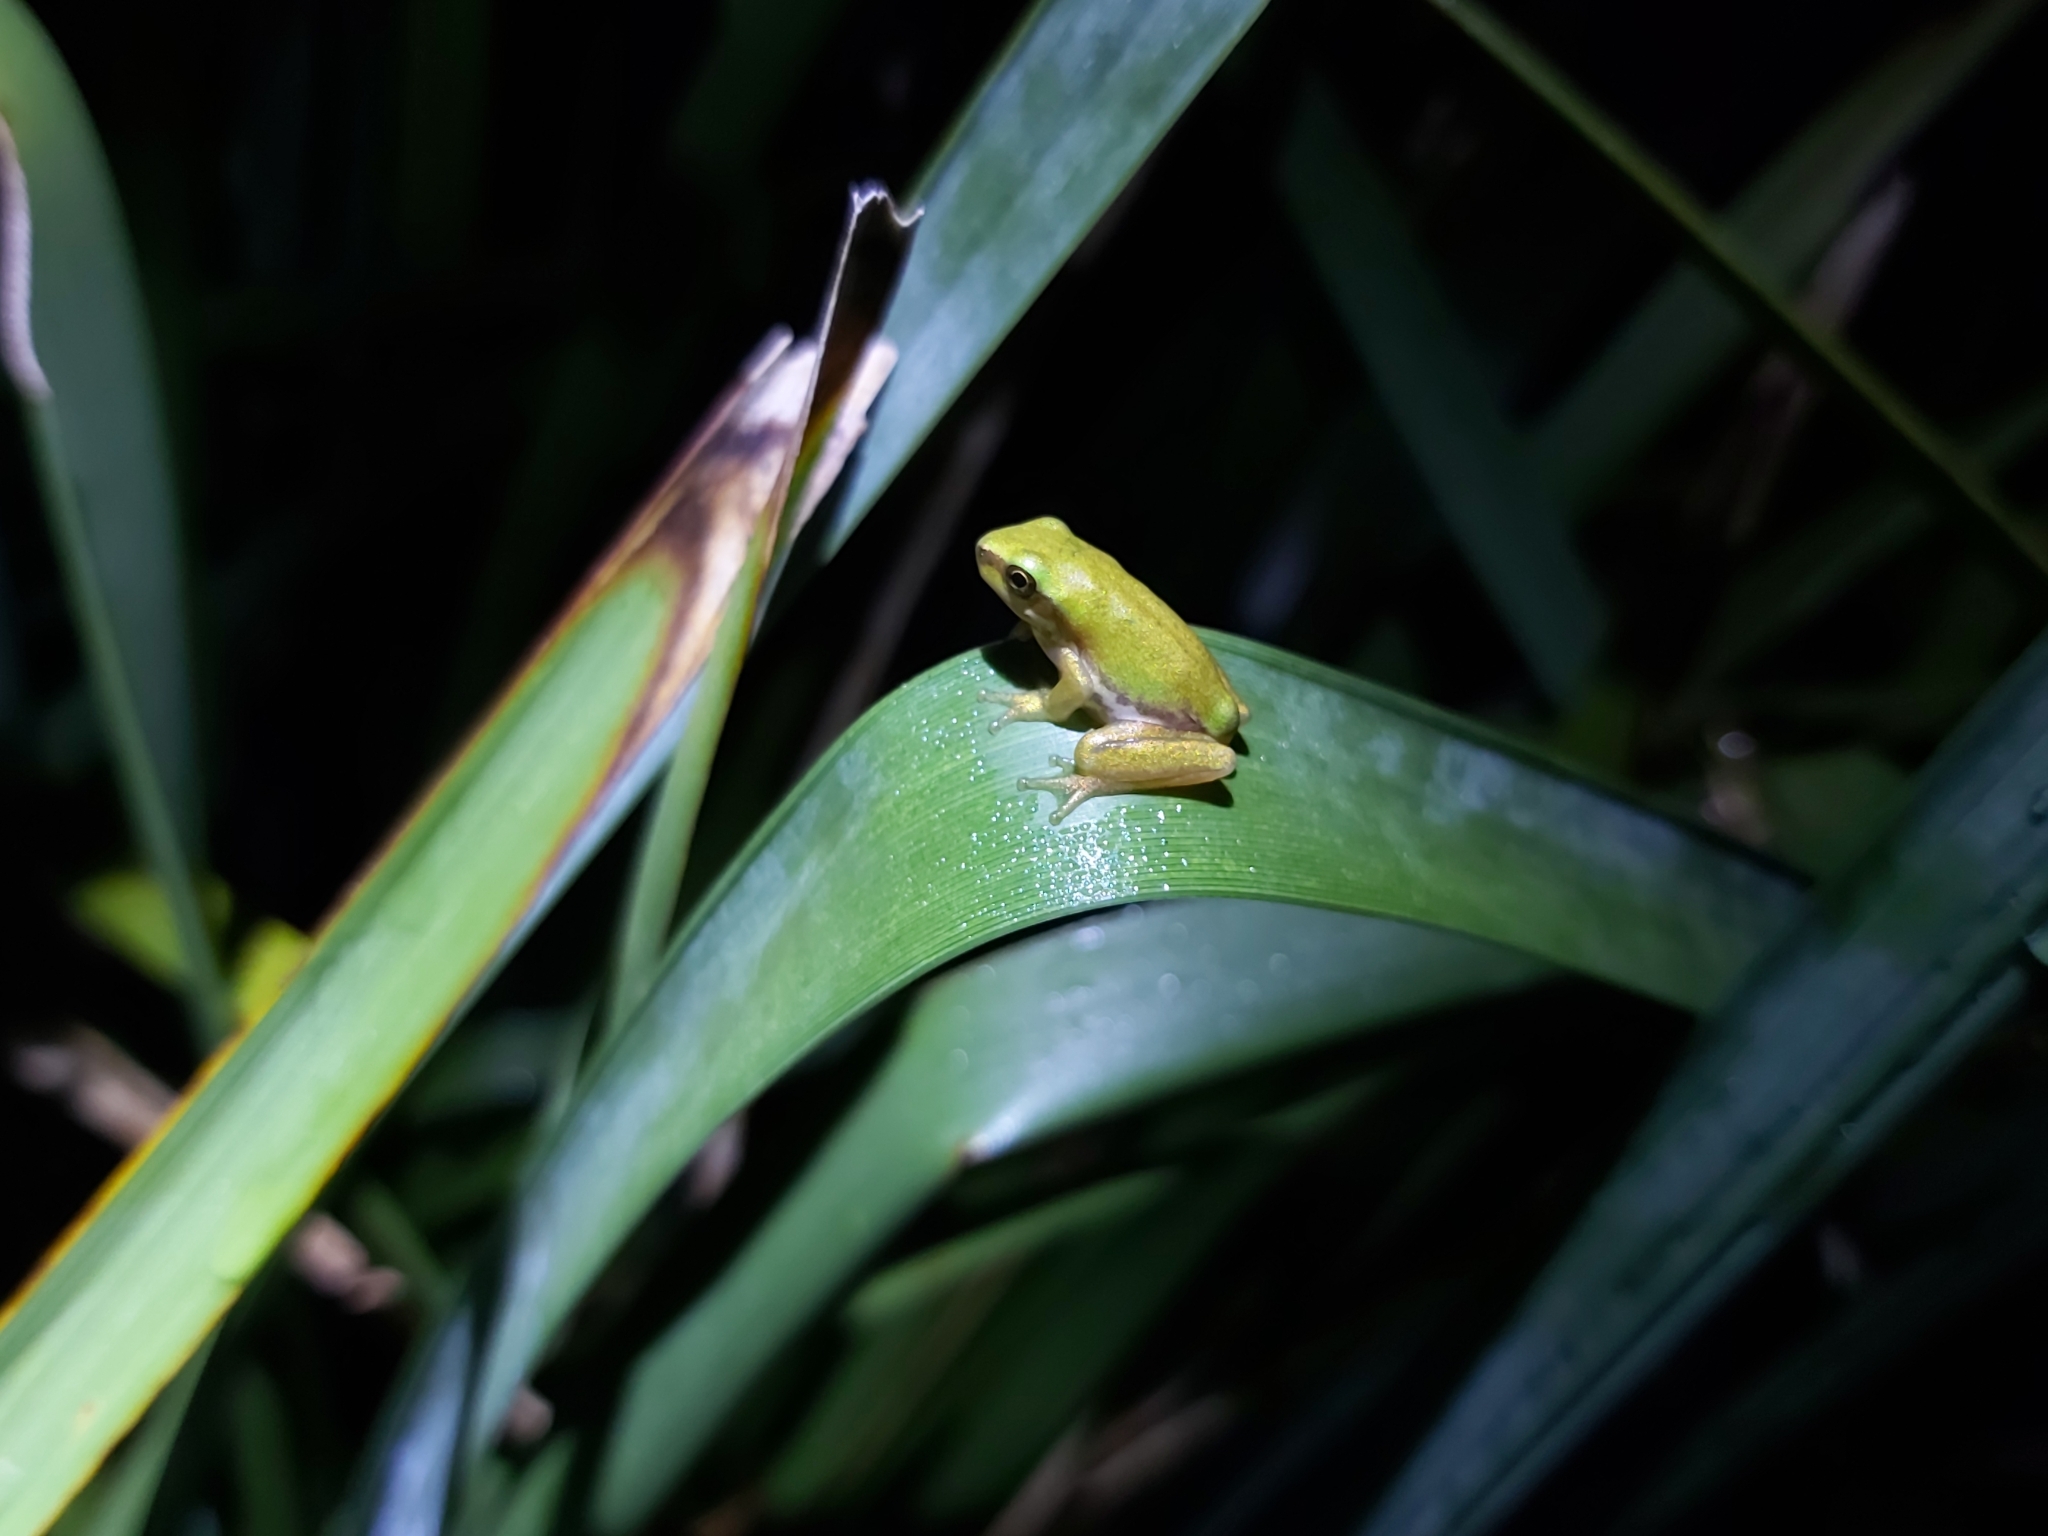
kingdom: Animalia
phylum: Chordata
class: Amphibia
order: Anura
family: Pelodryadidae
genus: Litoria
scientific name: Litoria fallax
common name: Eastern dwarf treefrog
